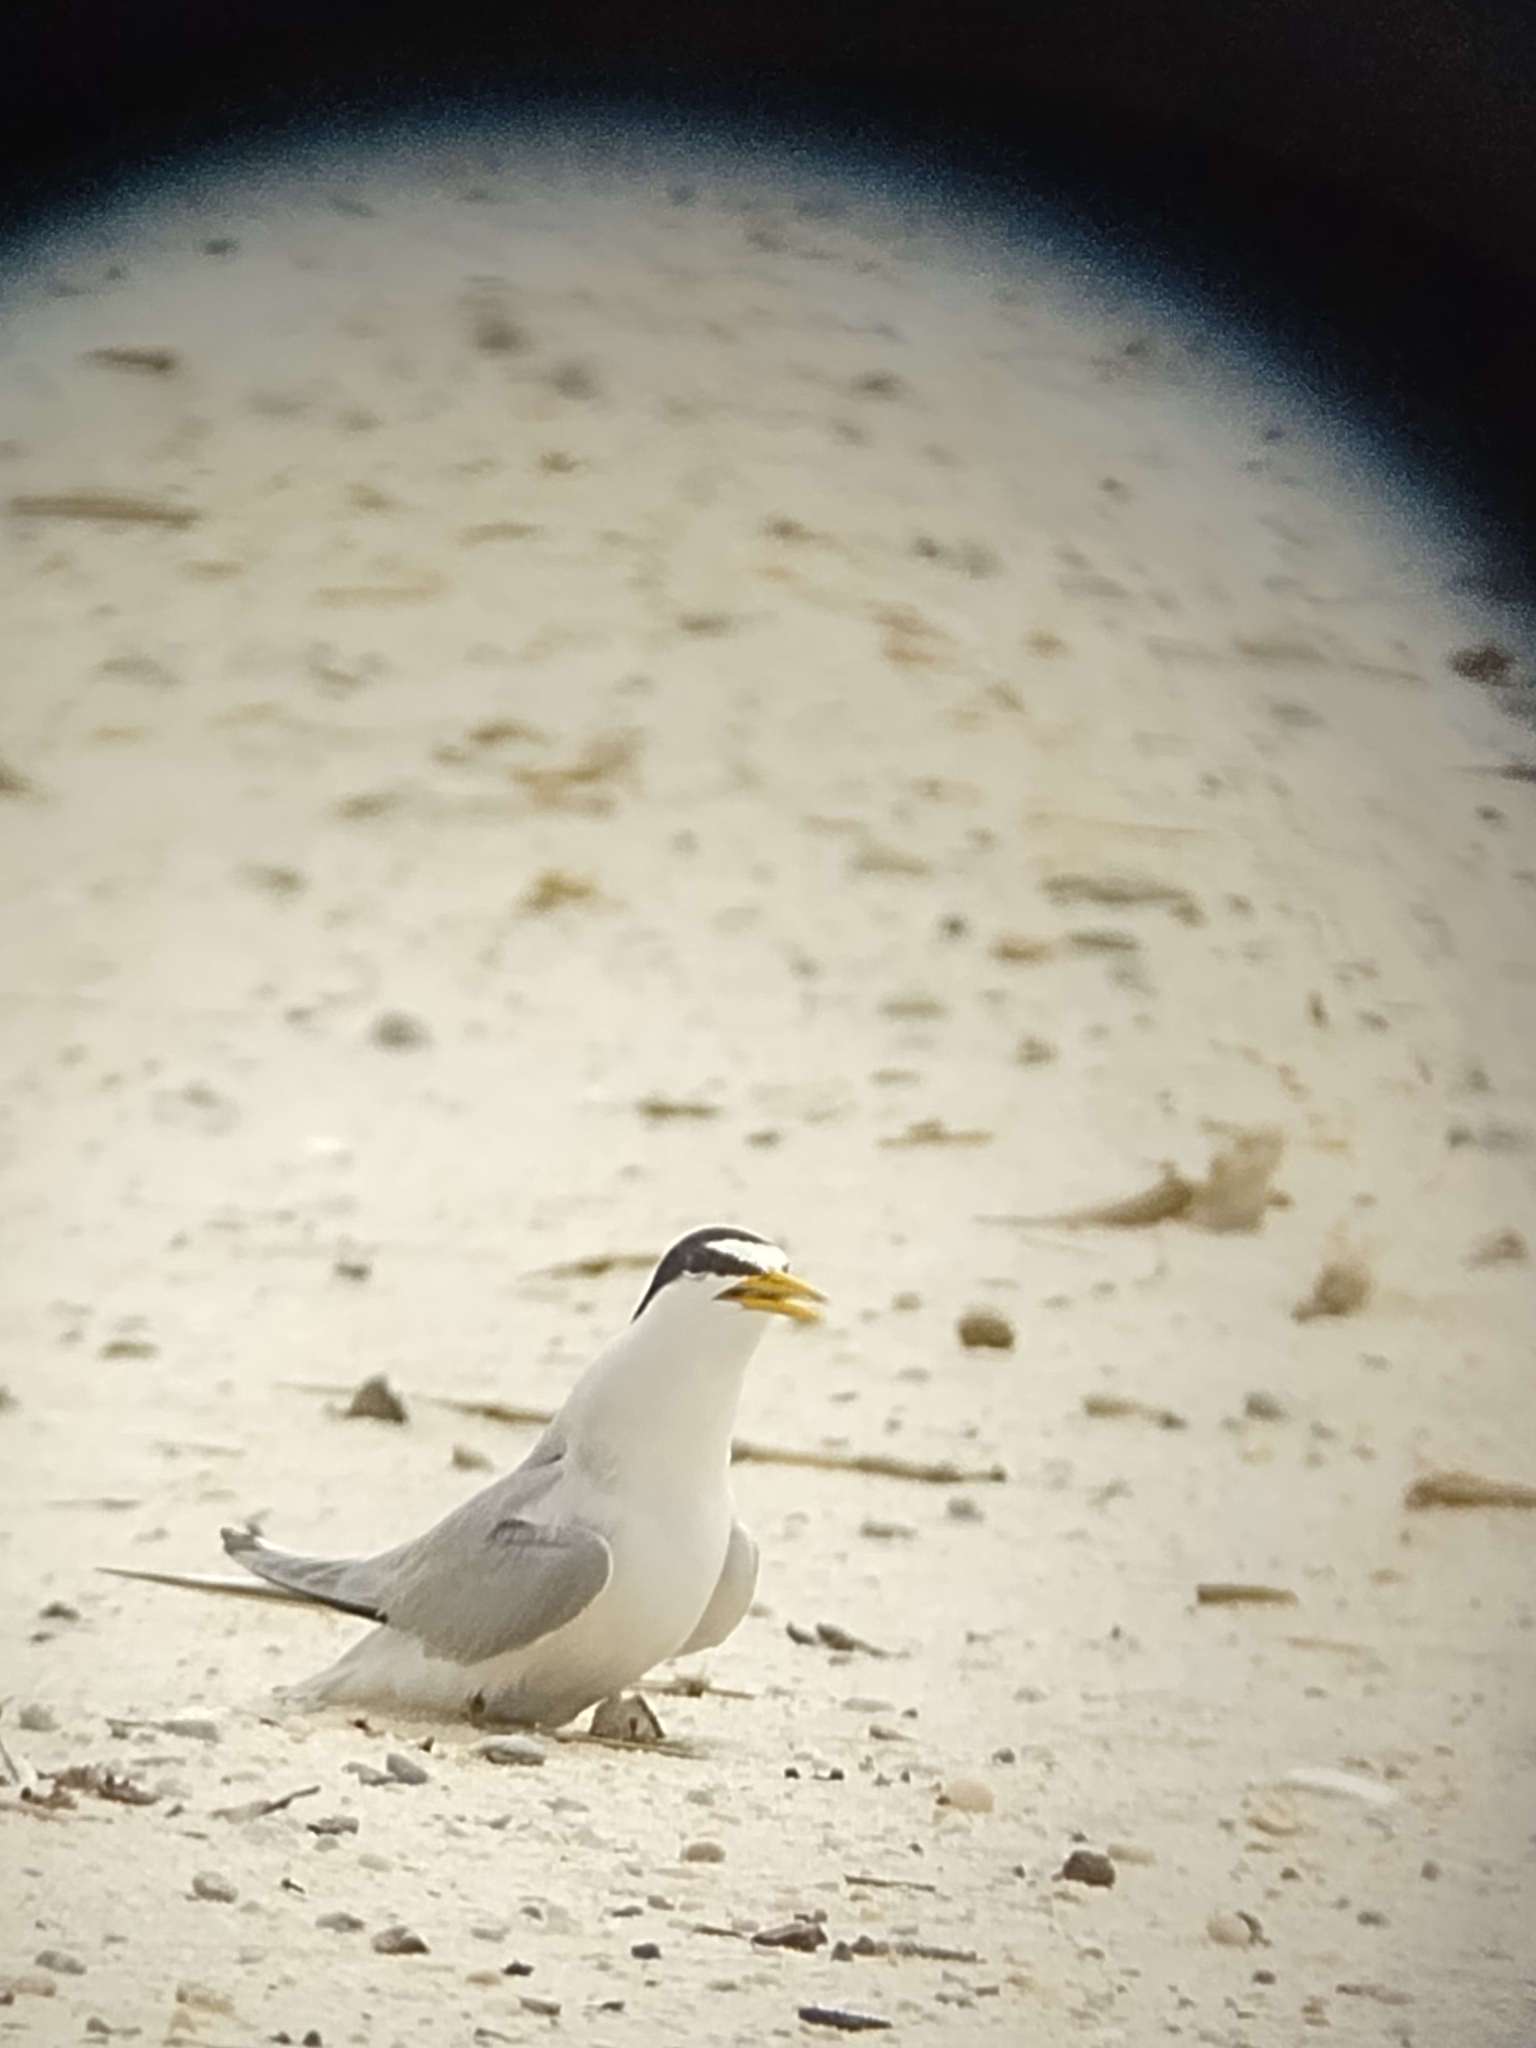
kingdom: Animalia
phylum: Chordata
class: Aves
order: Charadriiformes
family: Laridae
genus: Sternula
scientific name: Sternula antillarum
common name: Least tern
